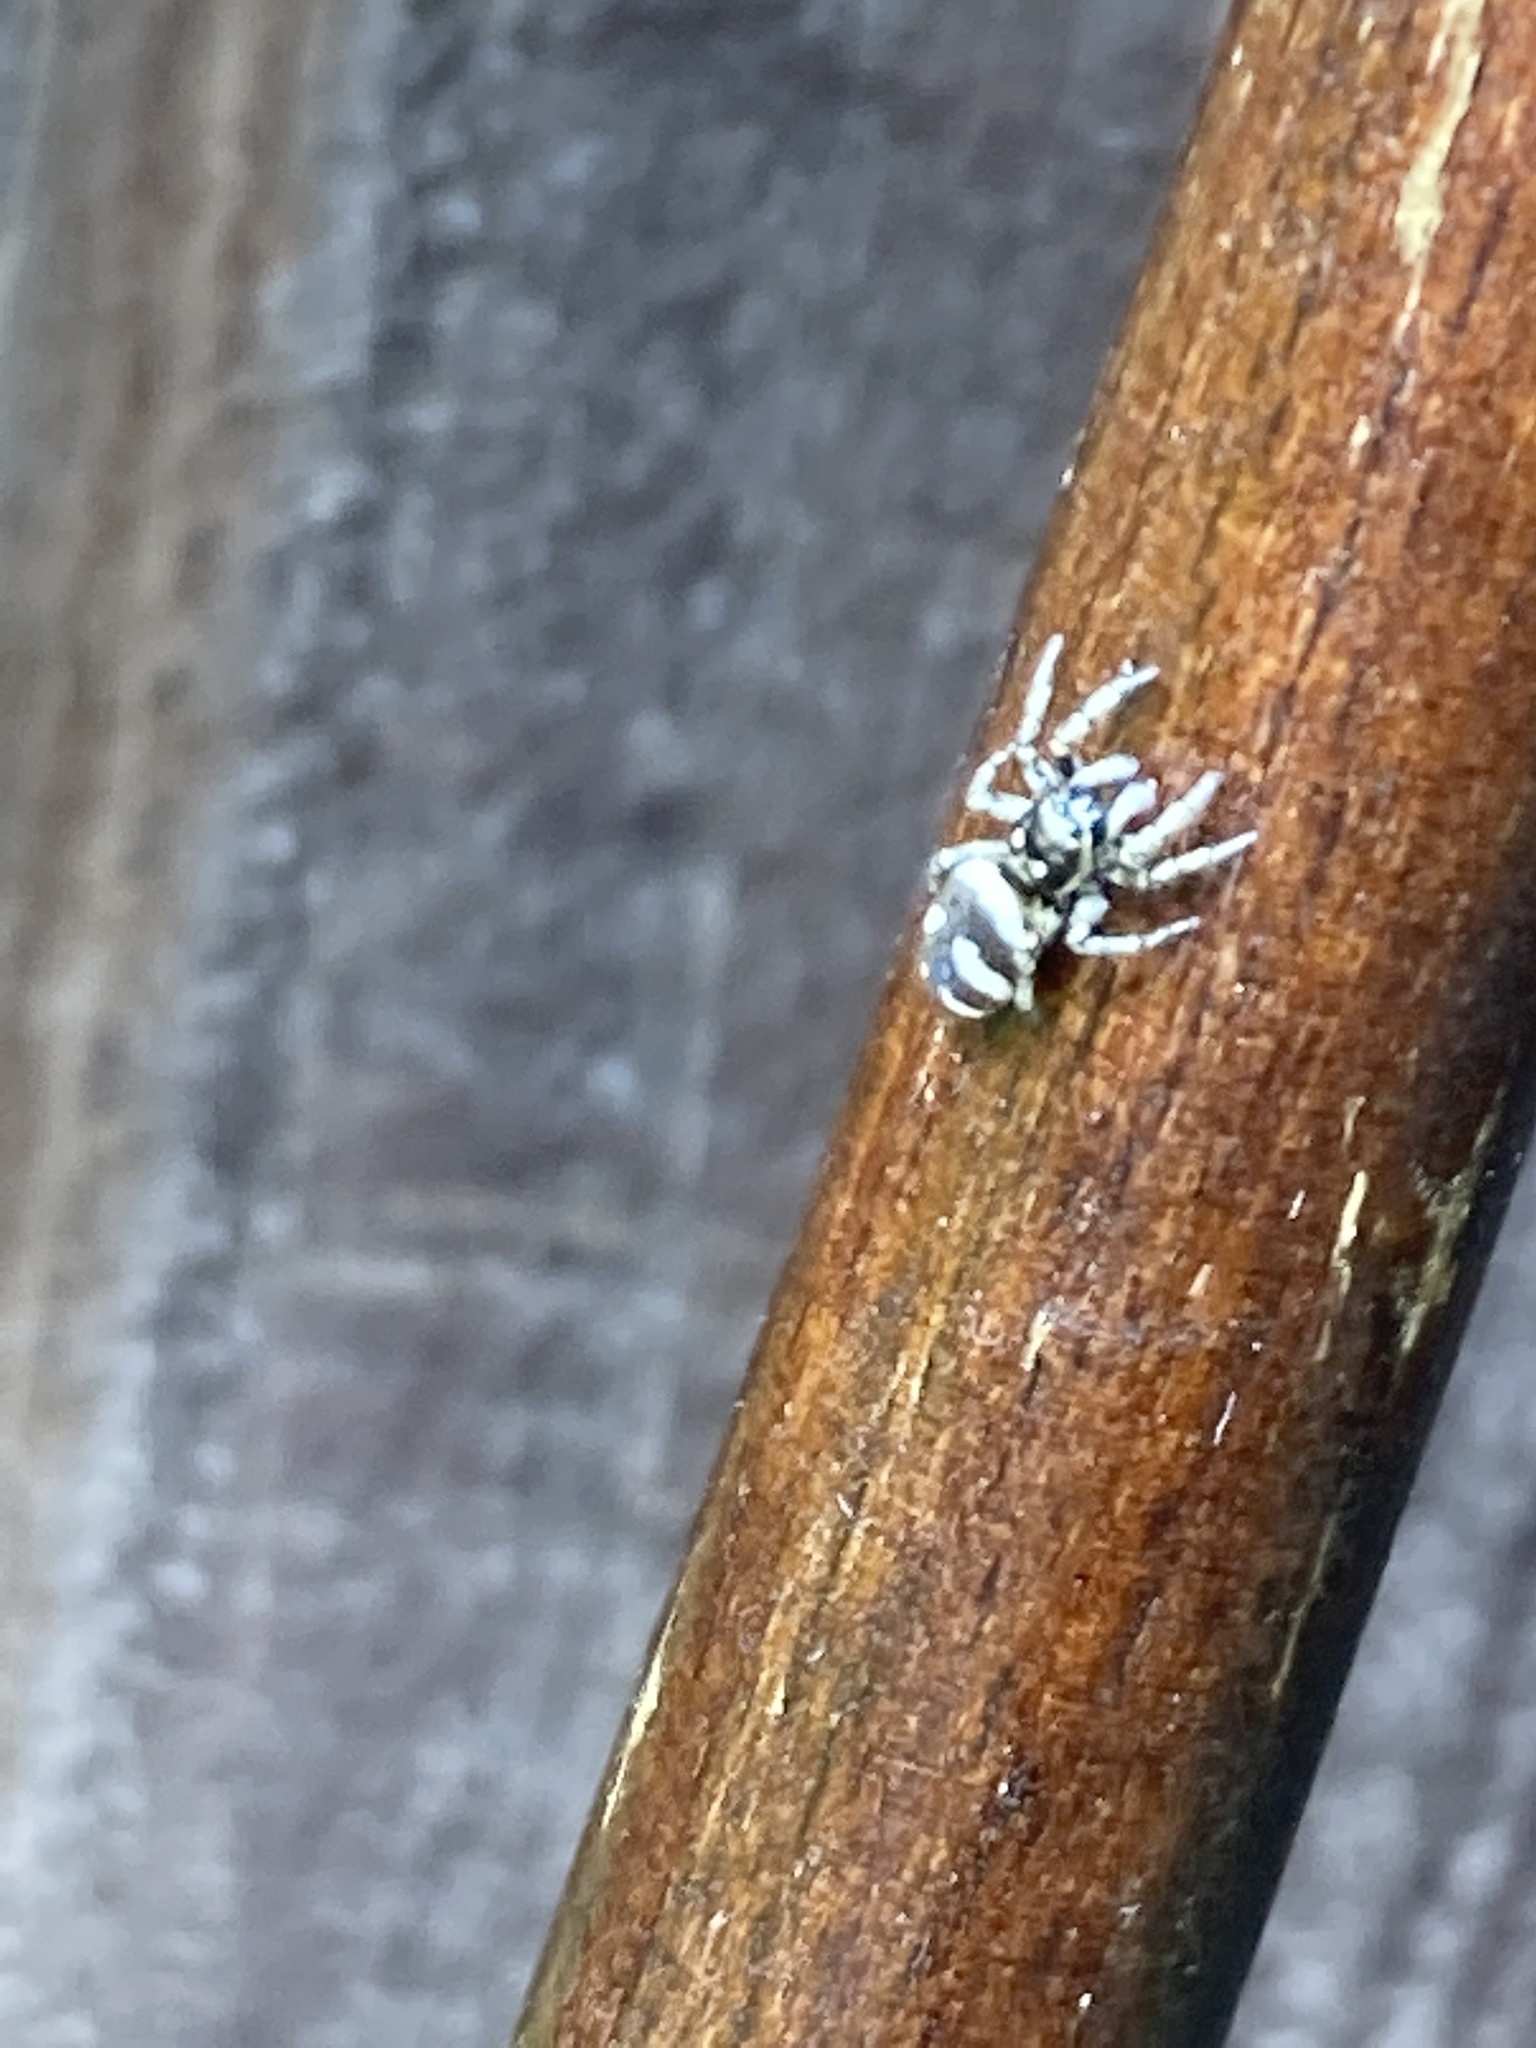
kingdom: Animalia
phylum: Arthropoda
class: Arachnida
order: Araneae
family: Salticidae
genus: Salticus
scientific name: Salticus scenicus
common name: Zebra jumper
